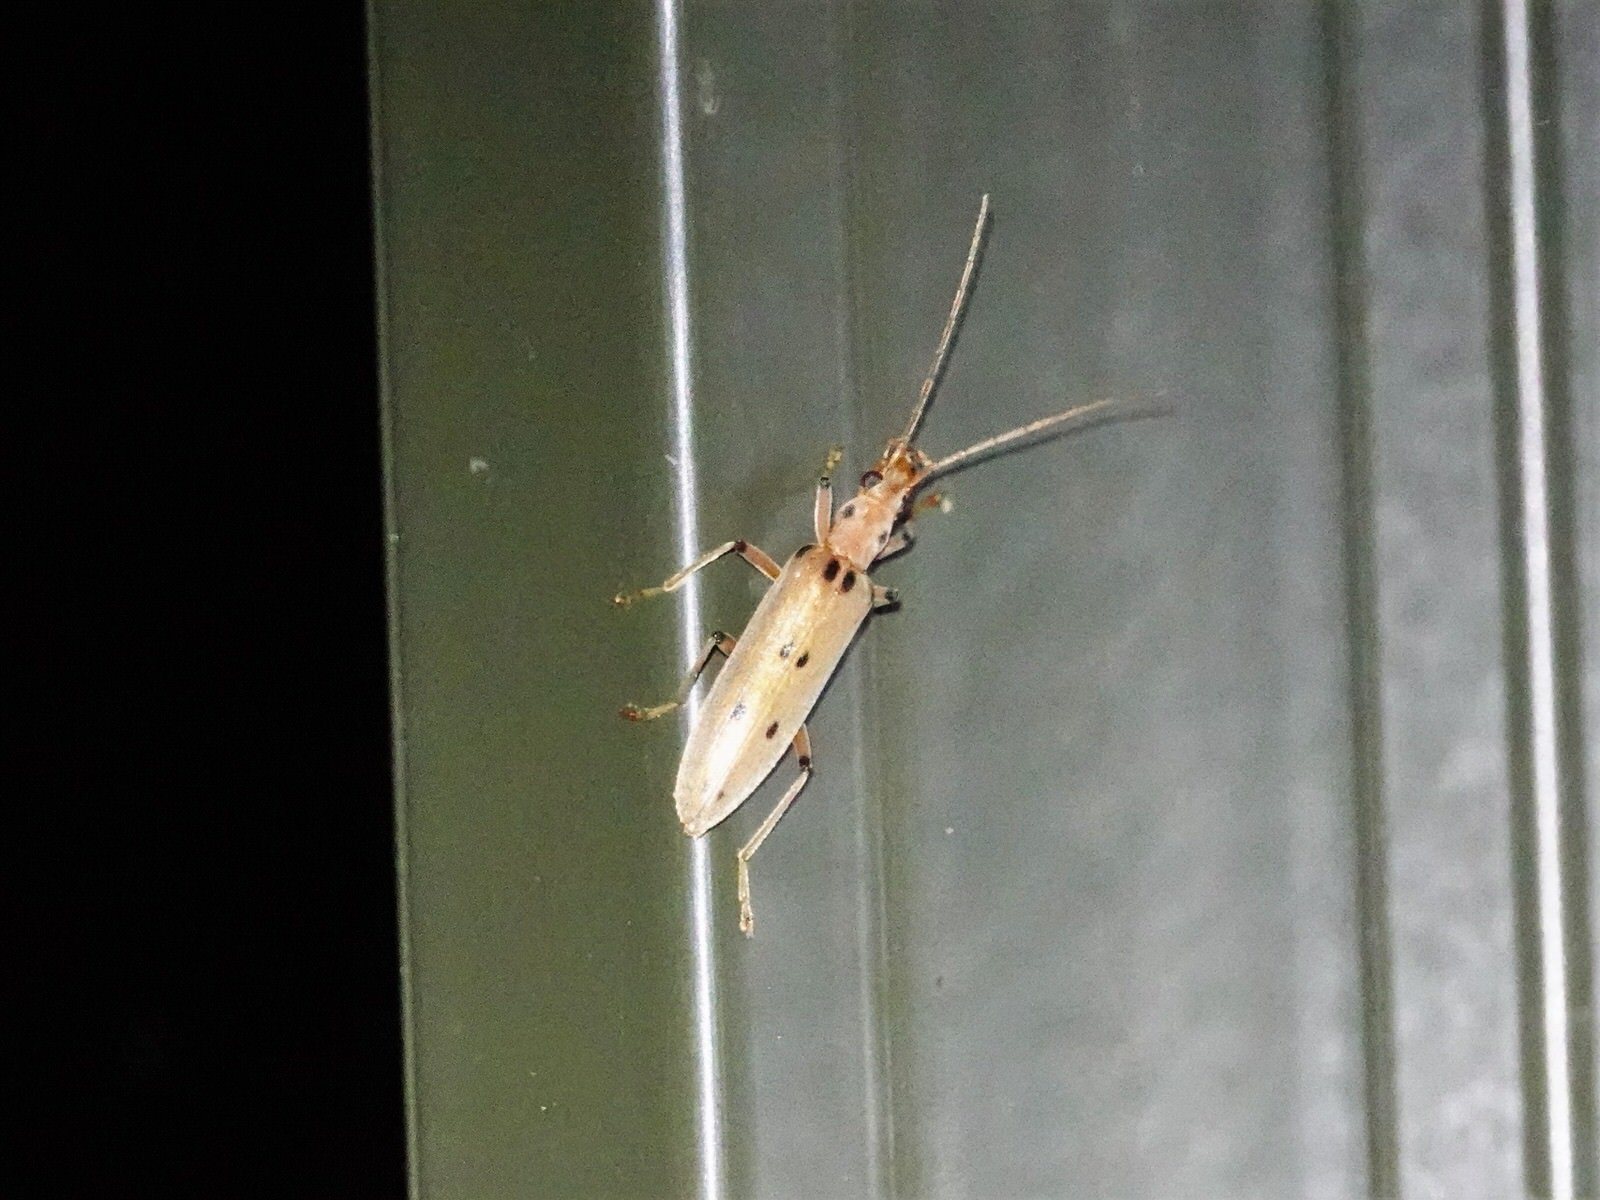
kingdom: Animalia
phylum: Arthropoda
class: Insecta
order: Coleoptera
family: Oedemeridae
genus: Parisopalpus
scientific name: Parisopalpus
